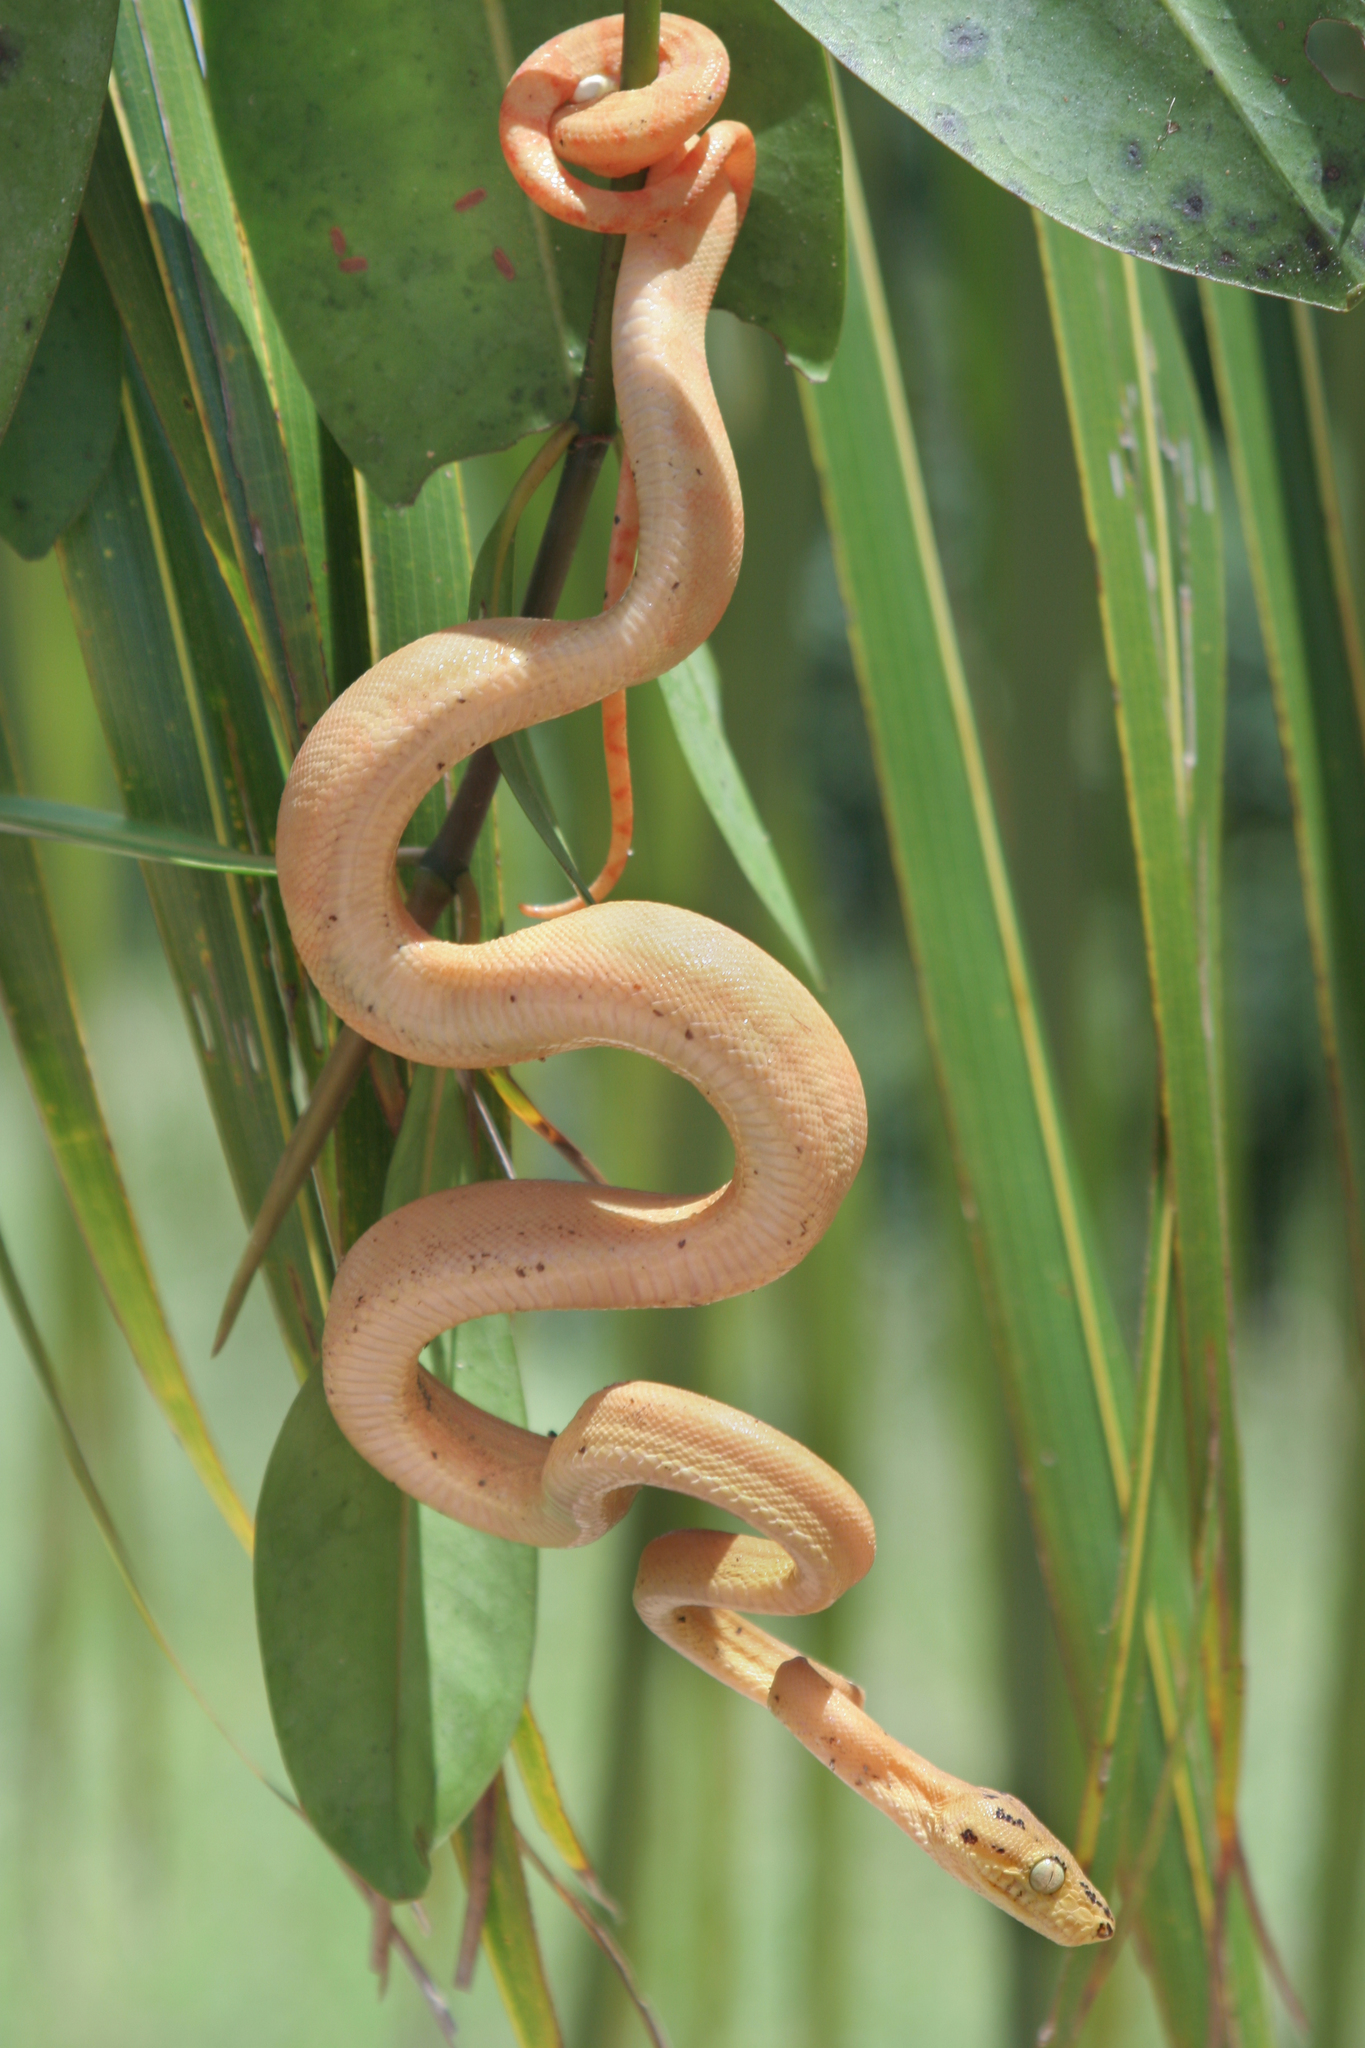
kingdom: Animalia
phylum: Chordata
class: Squamata
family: Boidae
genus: Corallus
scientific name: Corallus hortulana
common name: Garden tree boa
